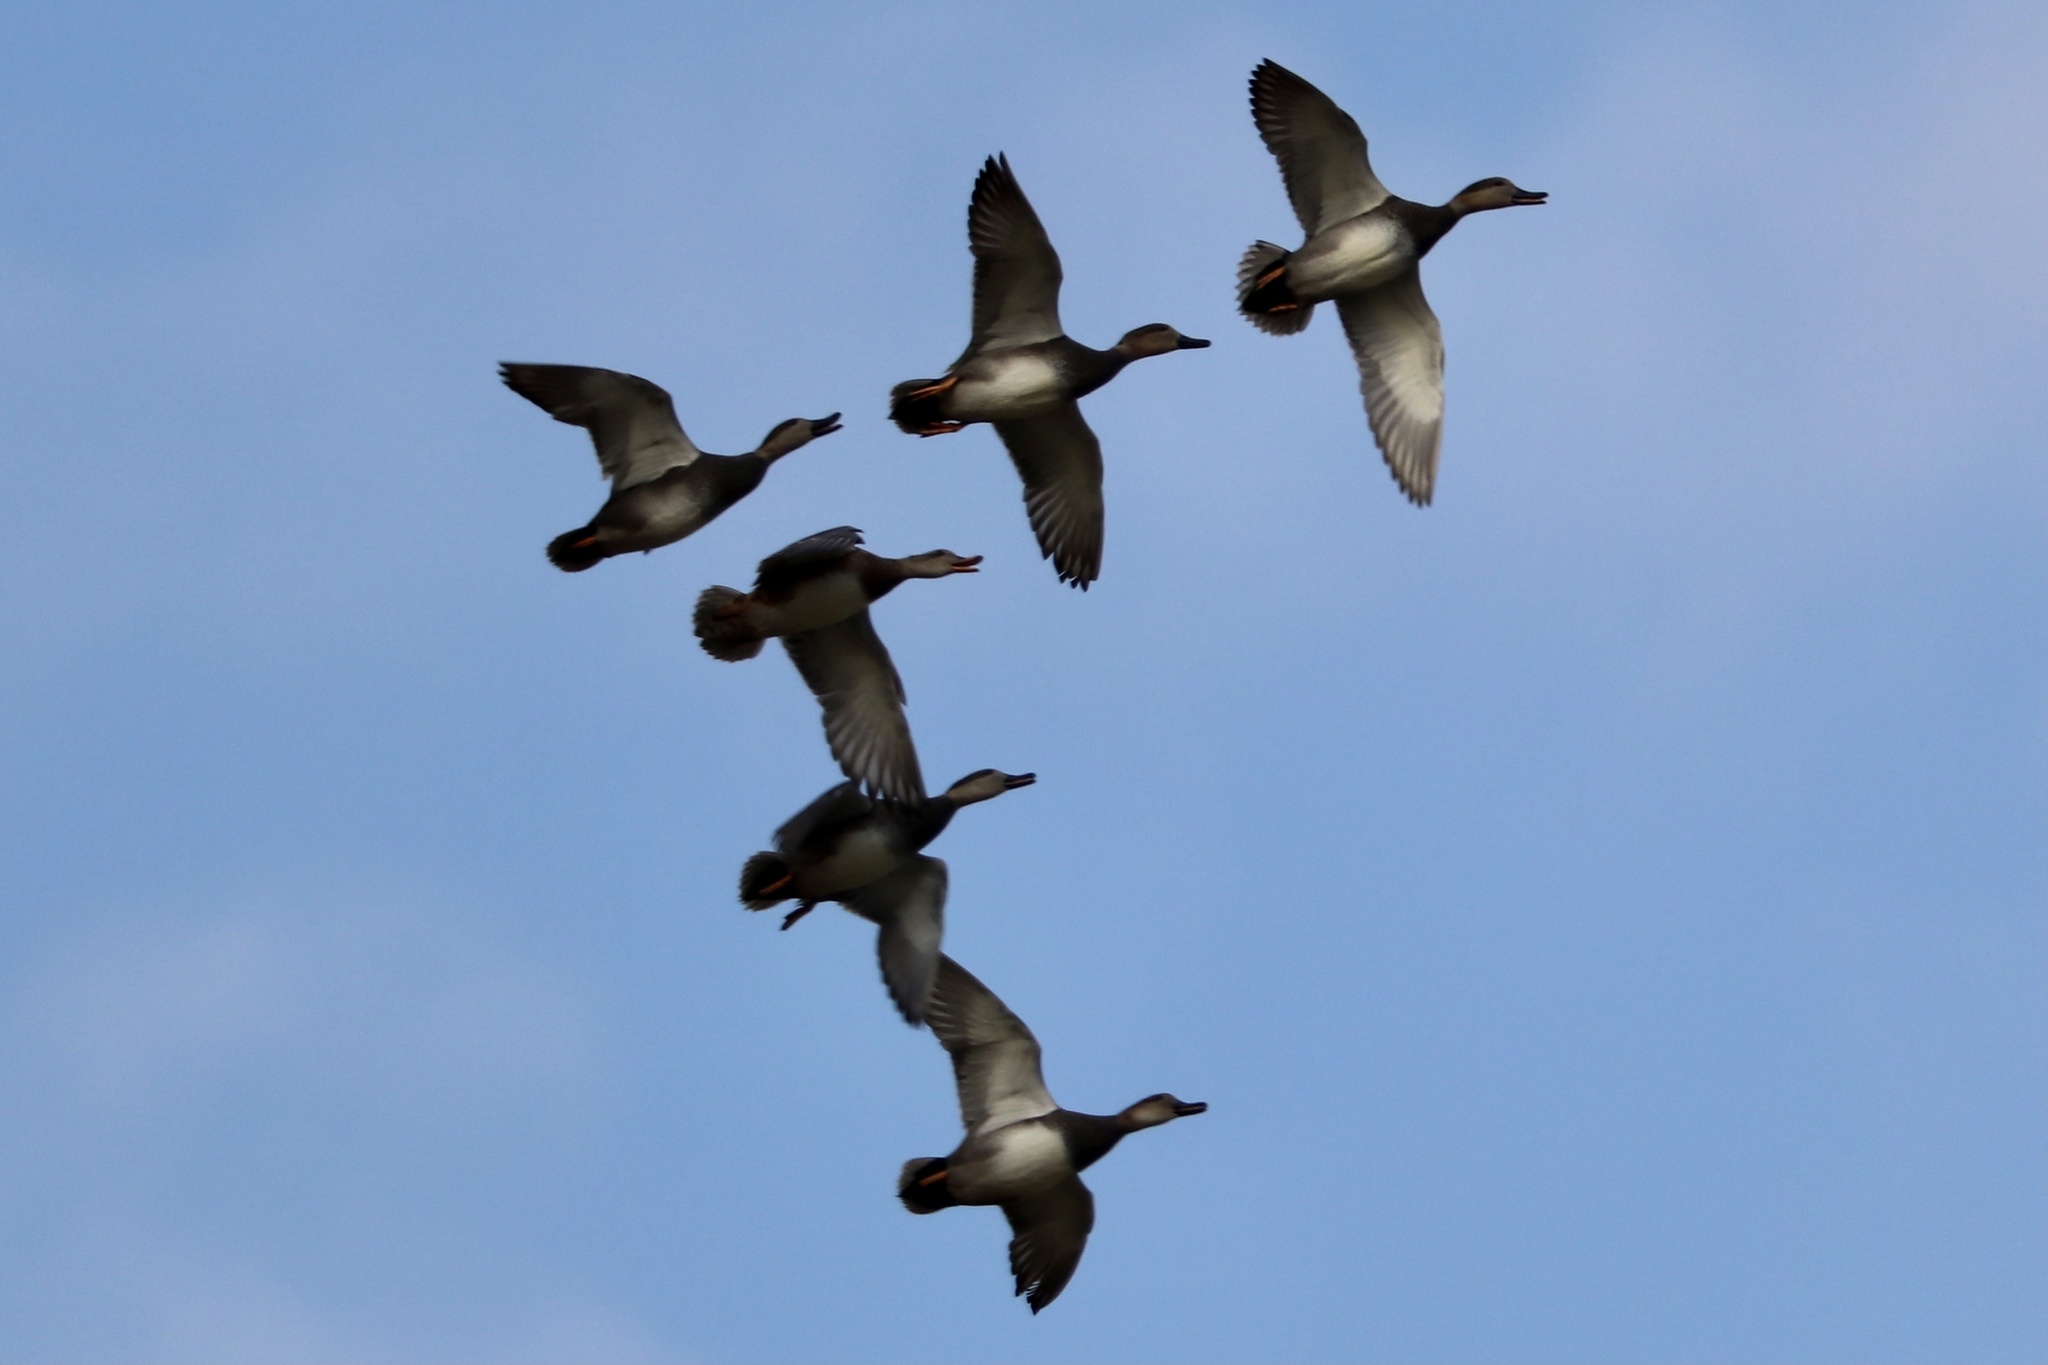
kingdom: Animalia
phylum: Chordata
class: Aves
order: Anseriformes
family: Anatidae
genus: Mareca
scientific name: Mareca strepera
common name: Gadwall
